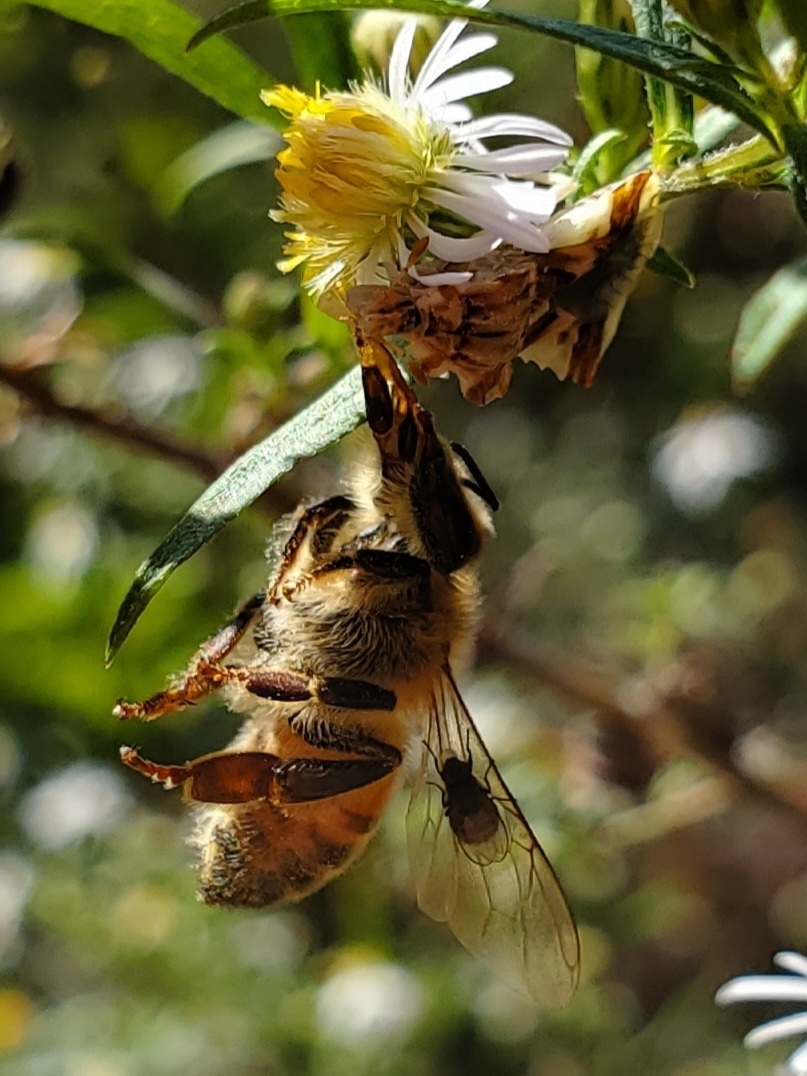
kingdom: Animalia
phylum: Arthropoda
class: Insecta
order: Hymenoptera
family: Apidae
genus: Apis
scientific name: Apis mellifera
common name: Honey bee
